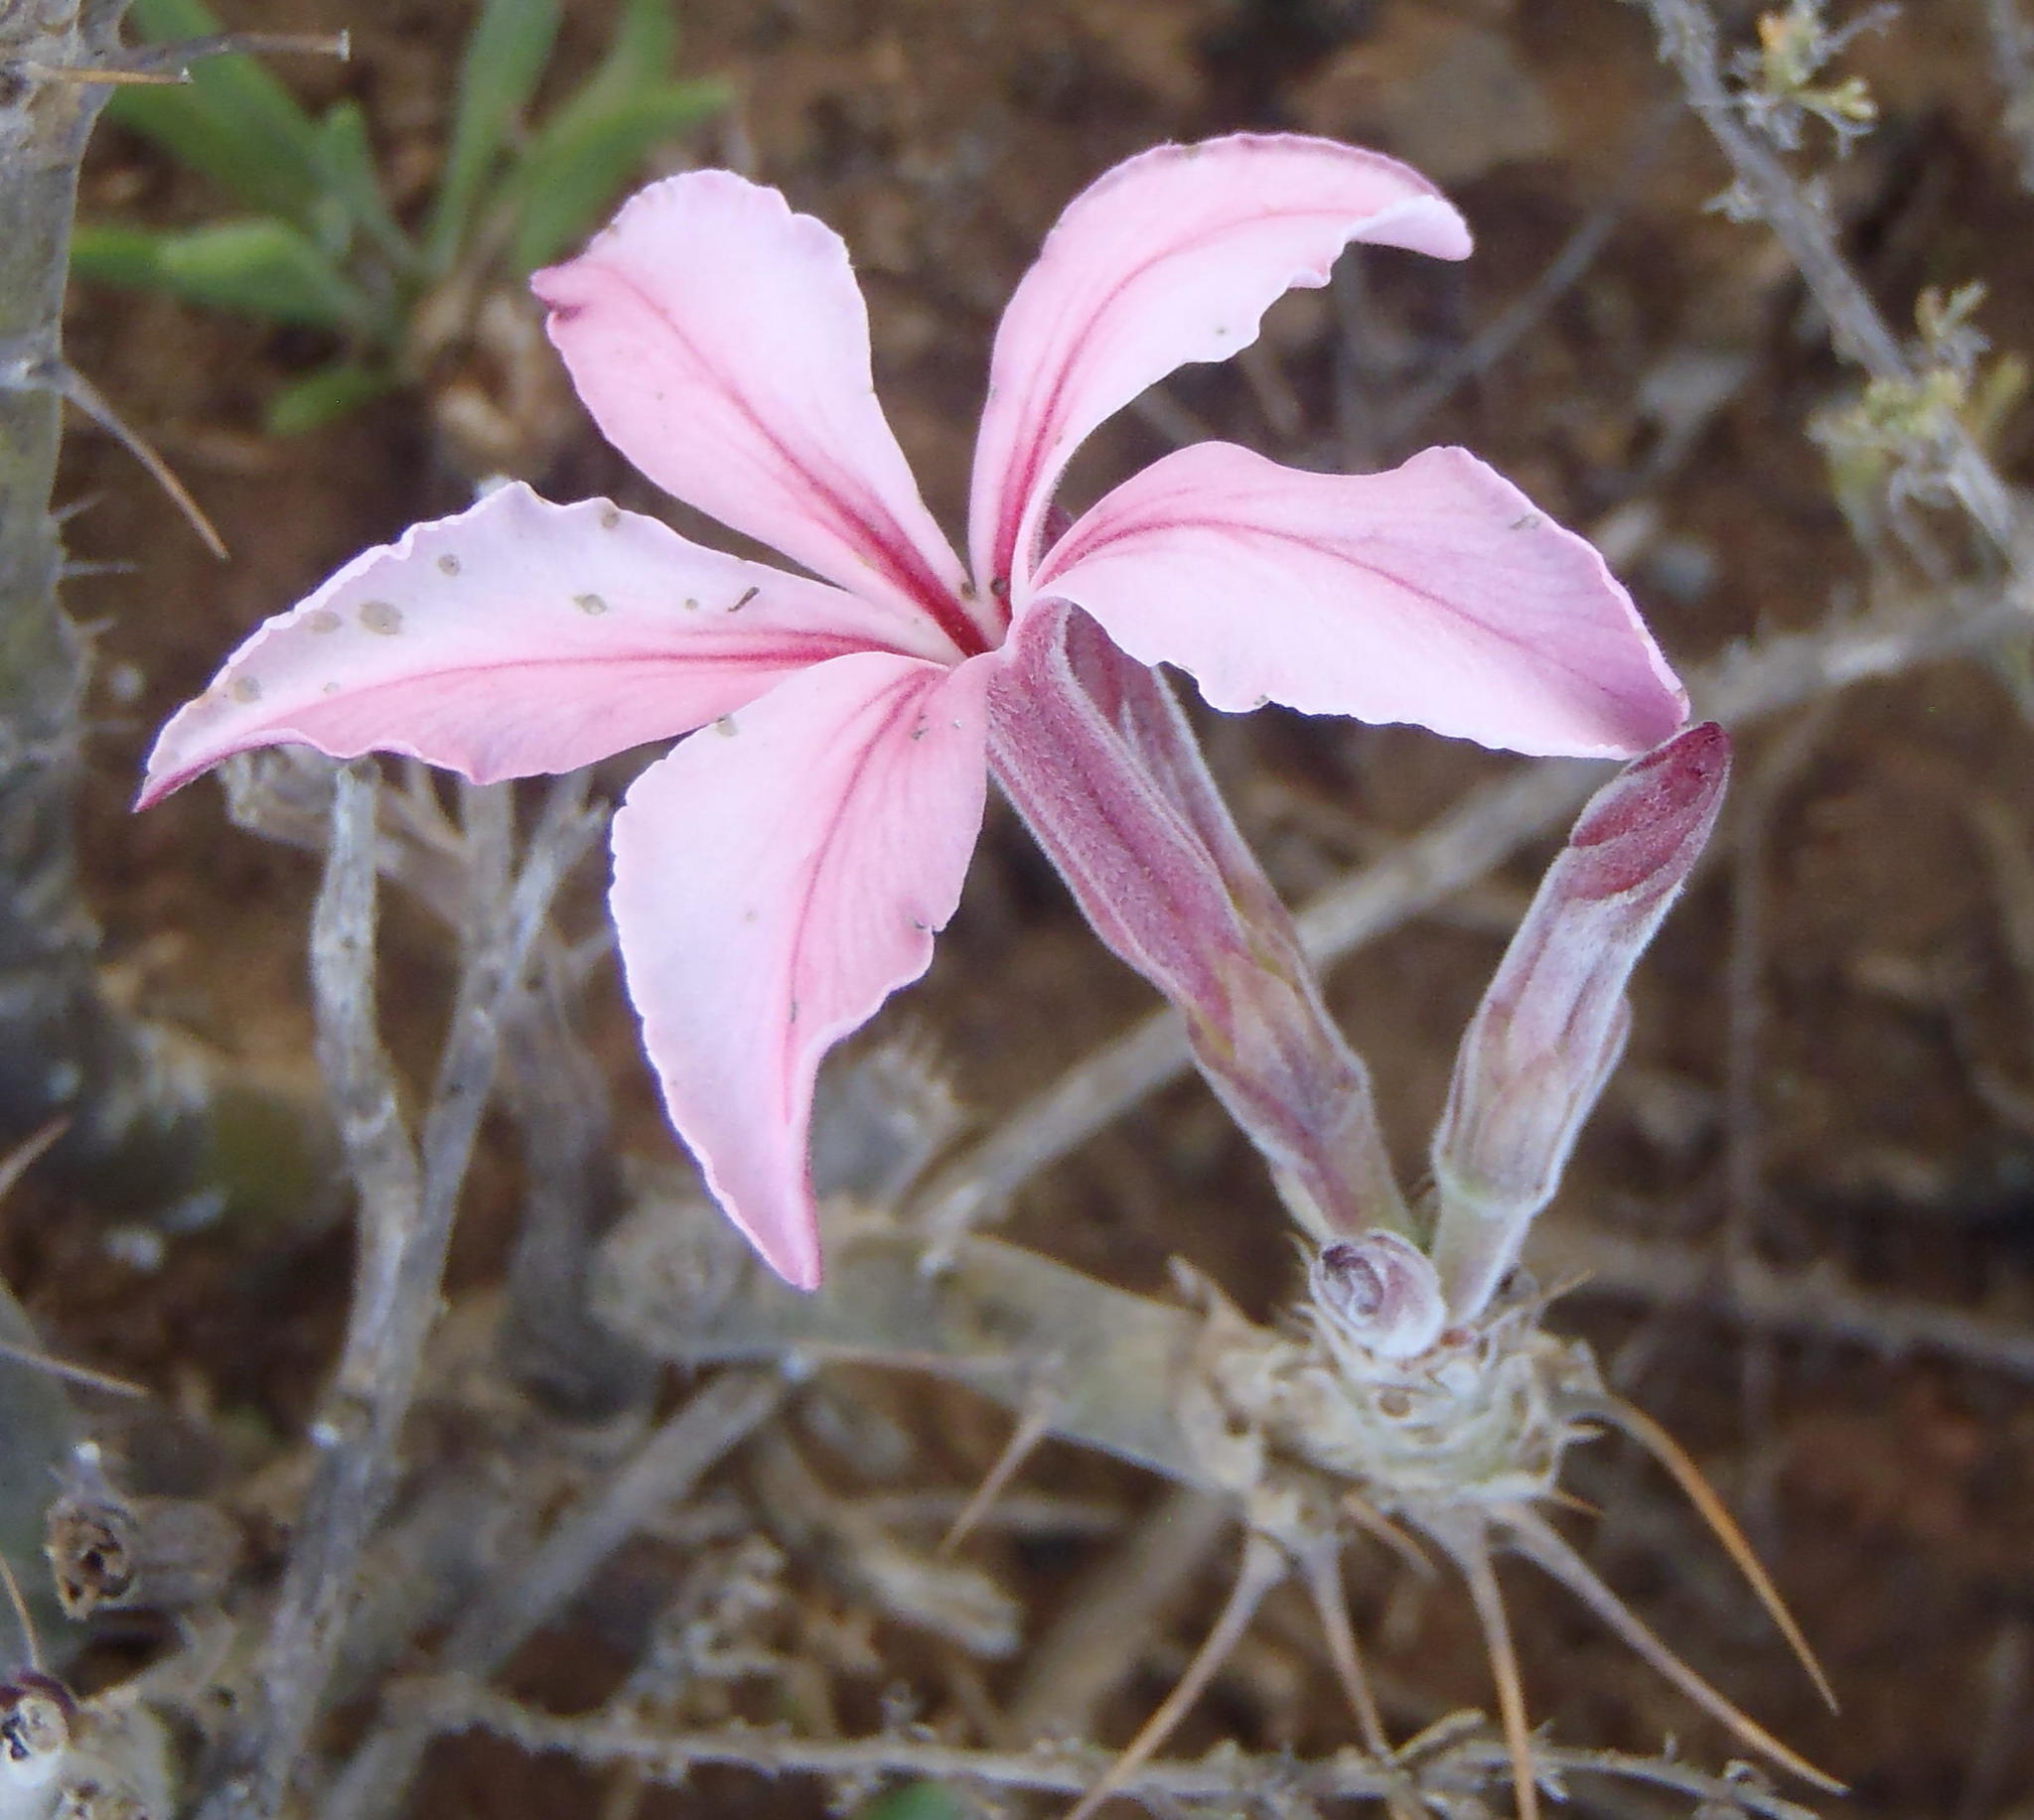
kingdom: Plantae
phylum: Tracheophyta
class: Magnoliopsida
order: Gentianales
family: Apocynaceae
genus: Pachypodium
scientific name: Pachypodium succulentum
